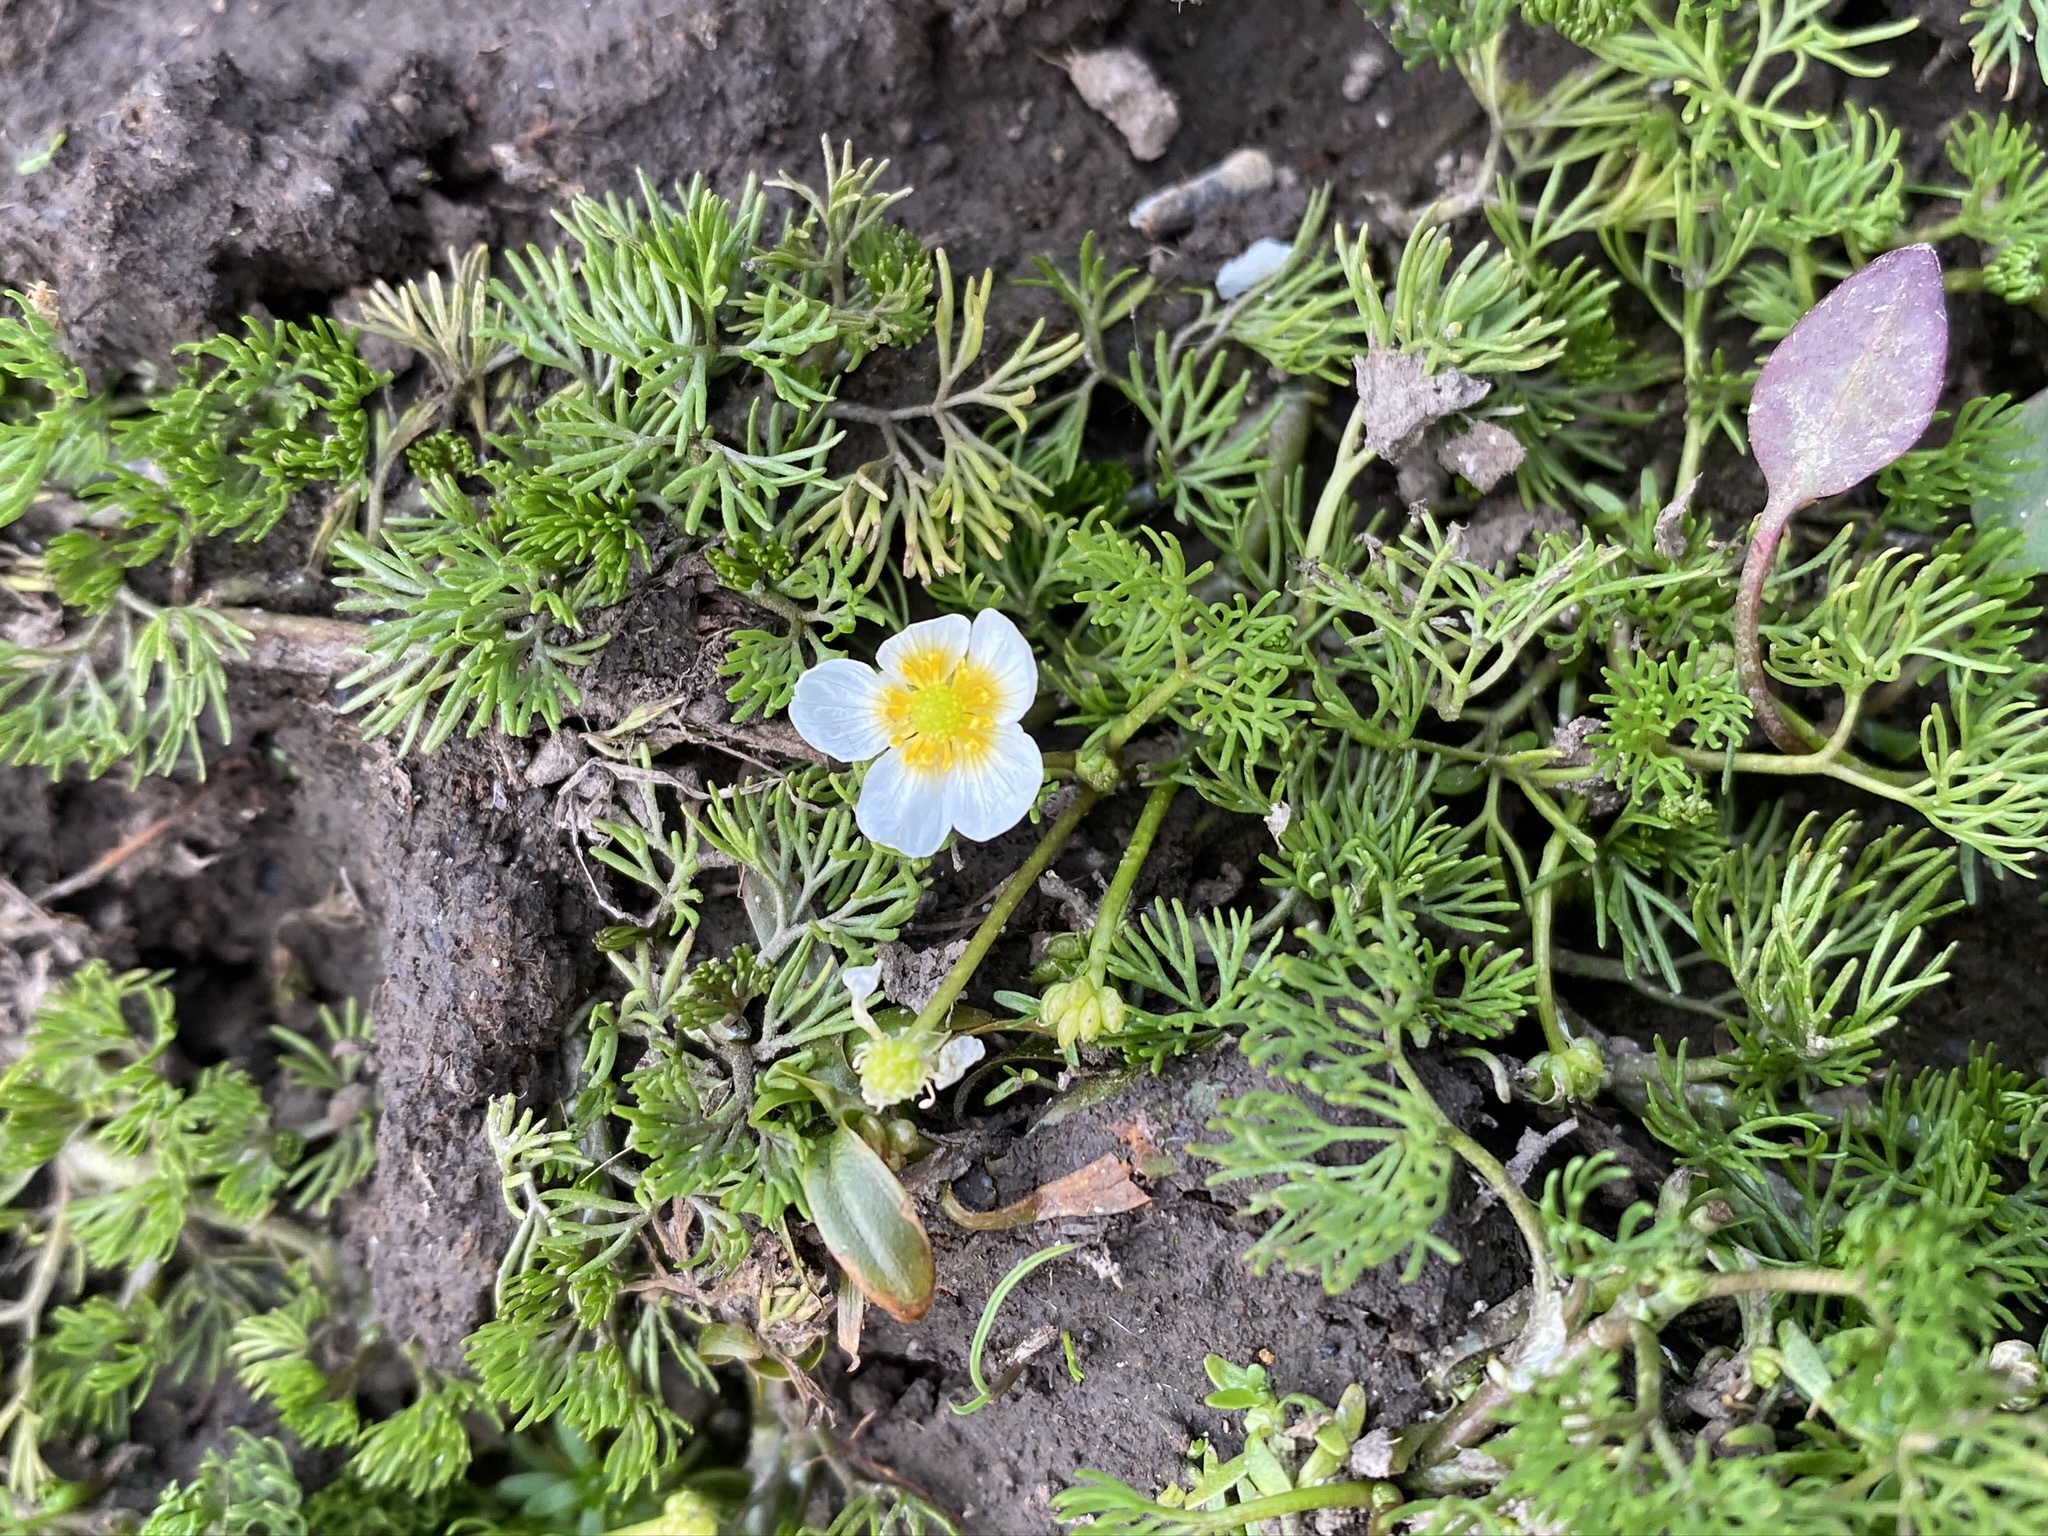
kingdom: Plantae
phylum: Tracheophyta
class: Magnoliopsida
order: Ranunculales
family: Ranunculaceae
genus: Ranunculus
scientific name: Ranunculus aquatilis
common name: Common water-crowfoot
